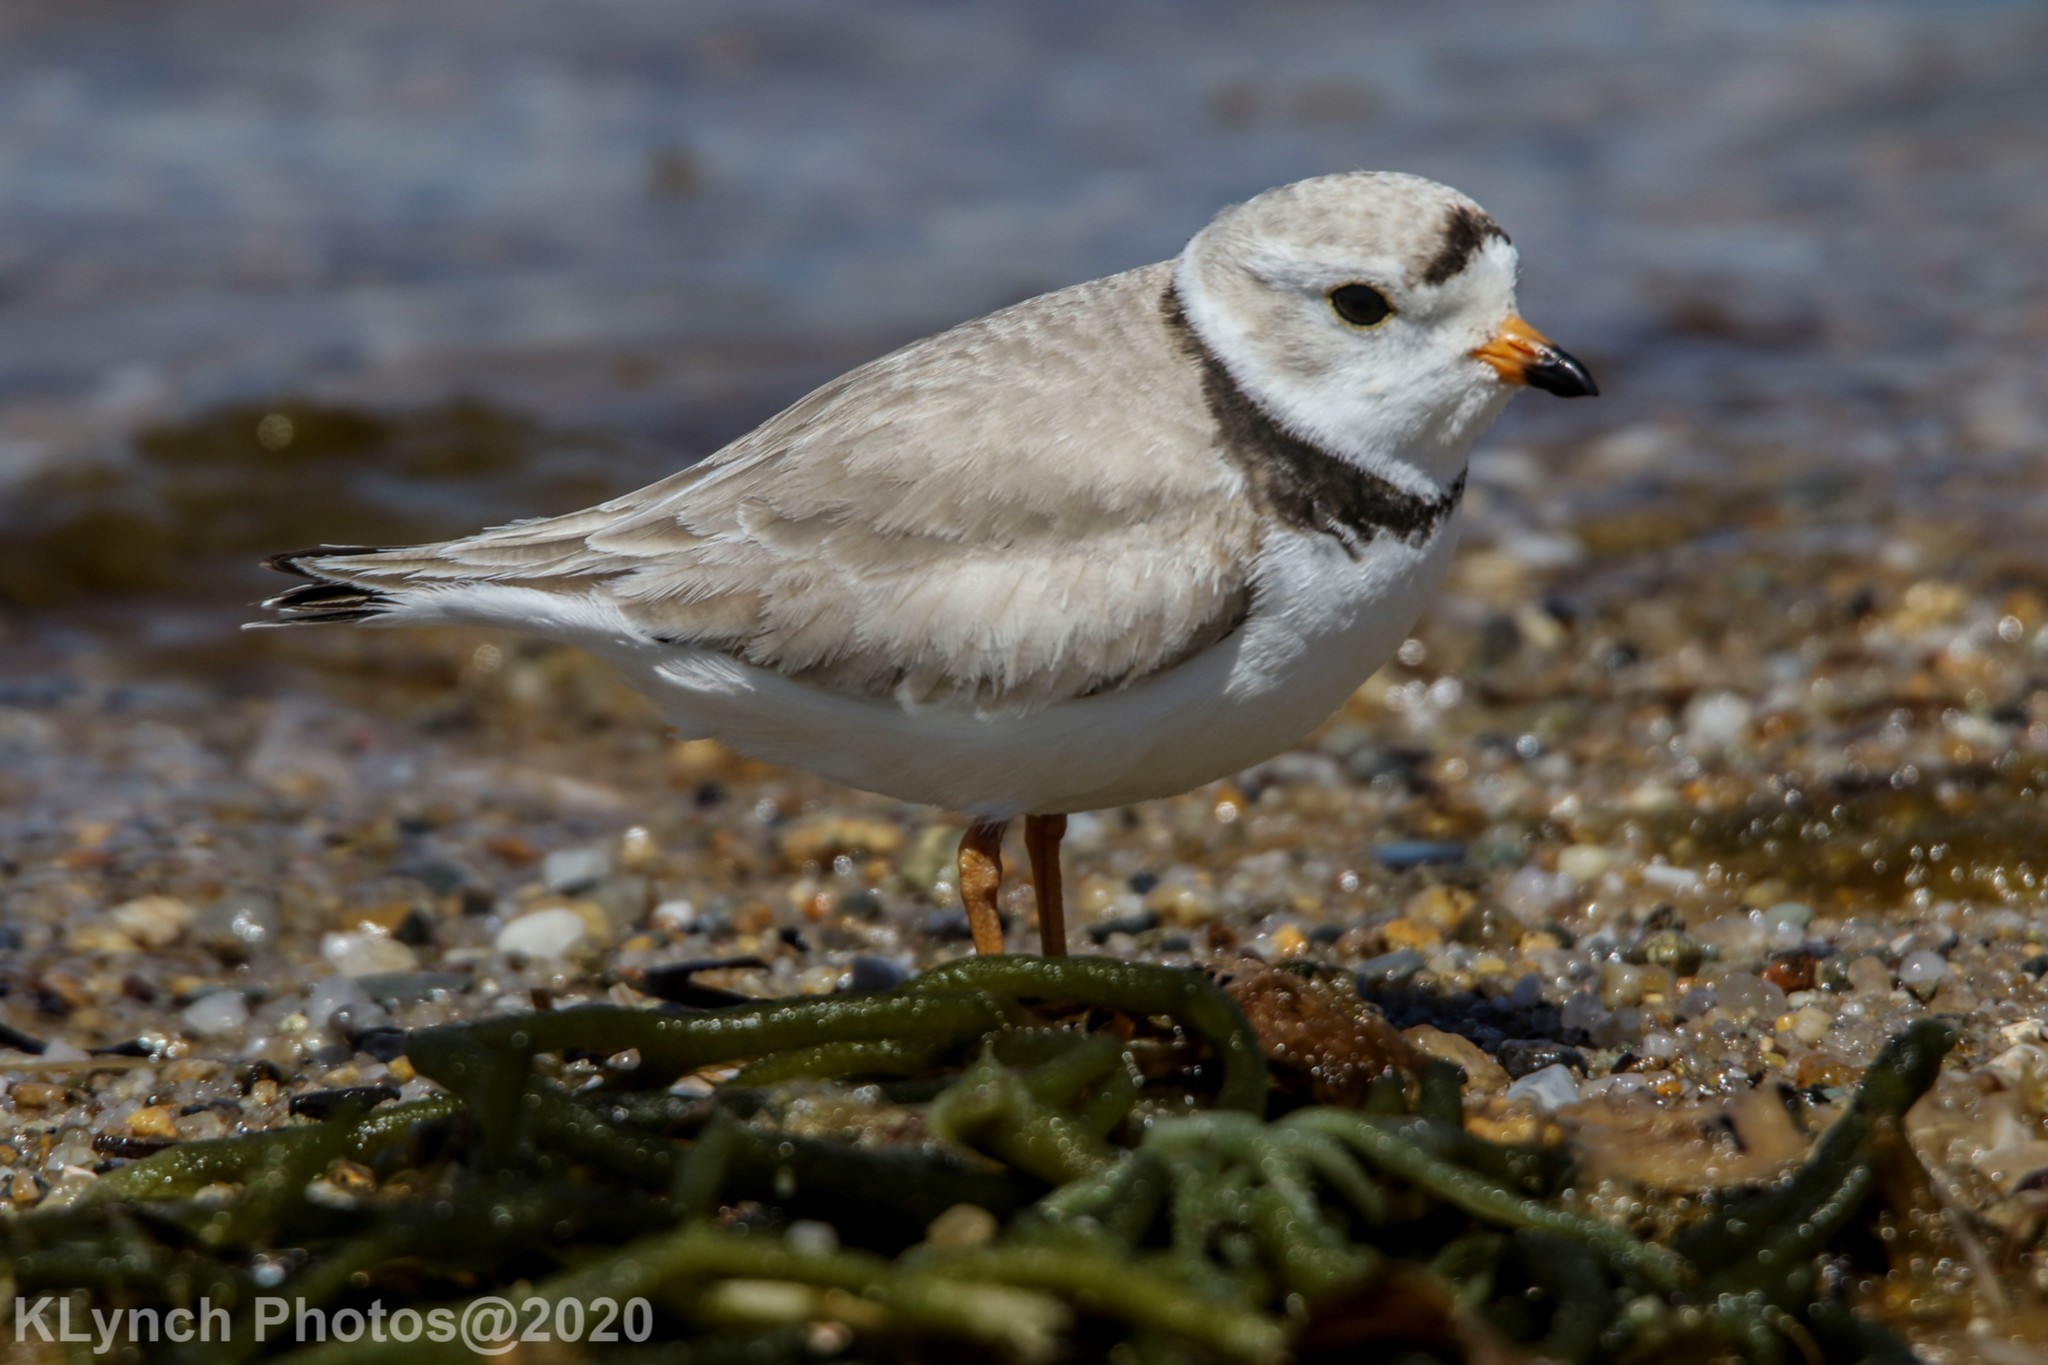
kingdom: Animalia
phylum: Chordata
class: Aves
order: Charadriiformes
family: Charadriidae
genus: Charadrius
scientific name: Charadrius melodus
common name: Piping plover
